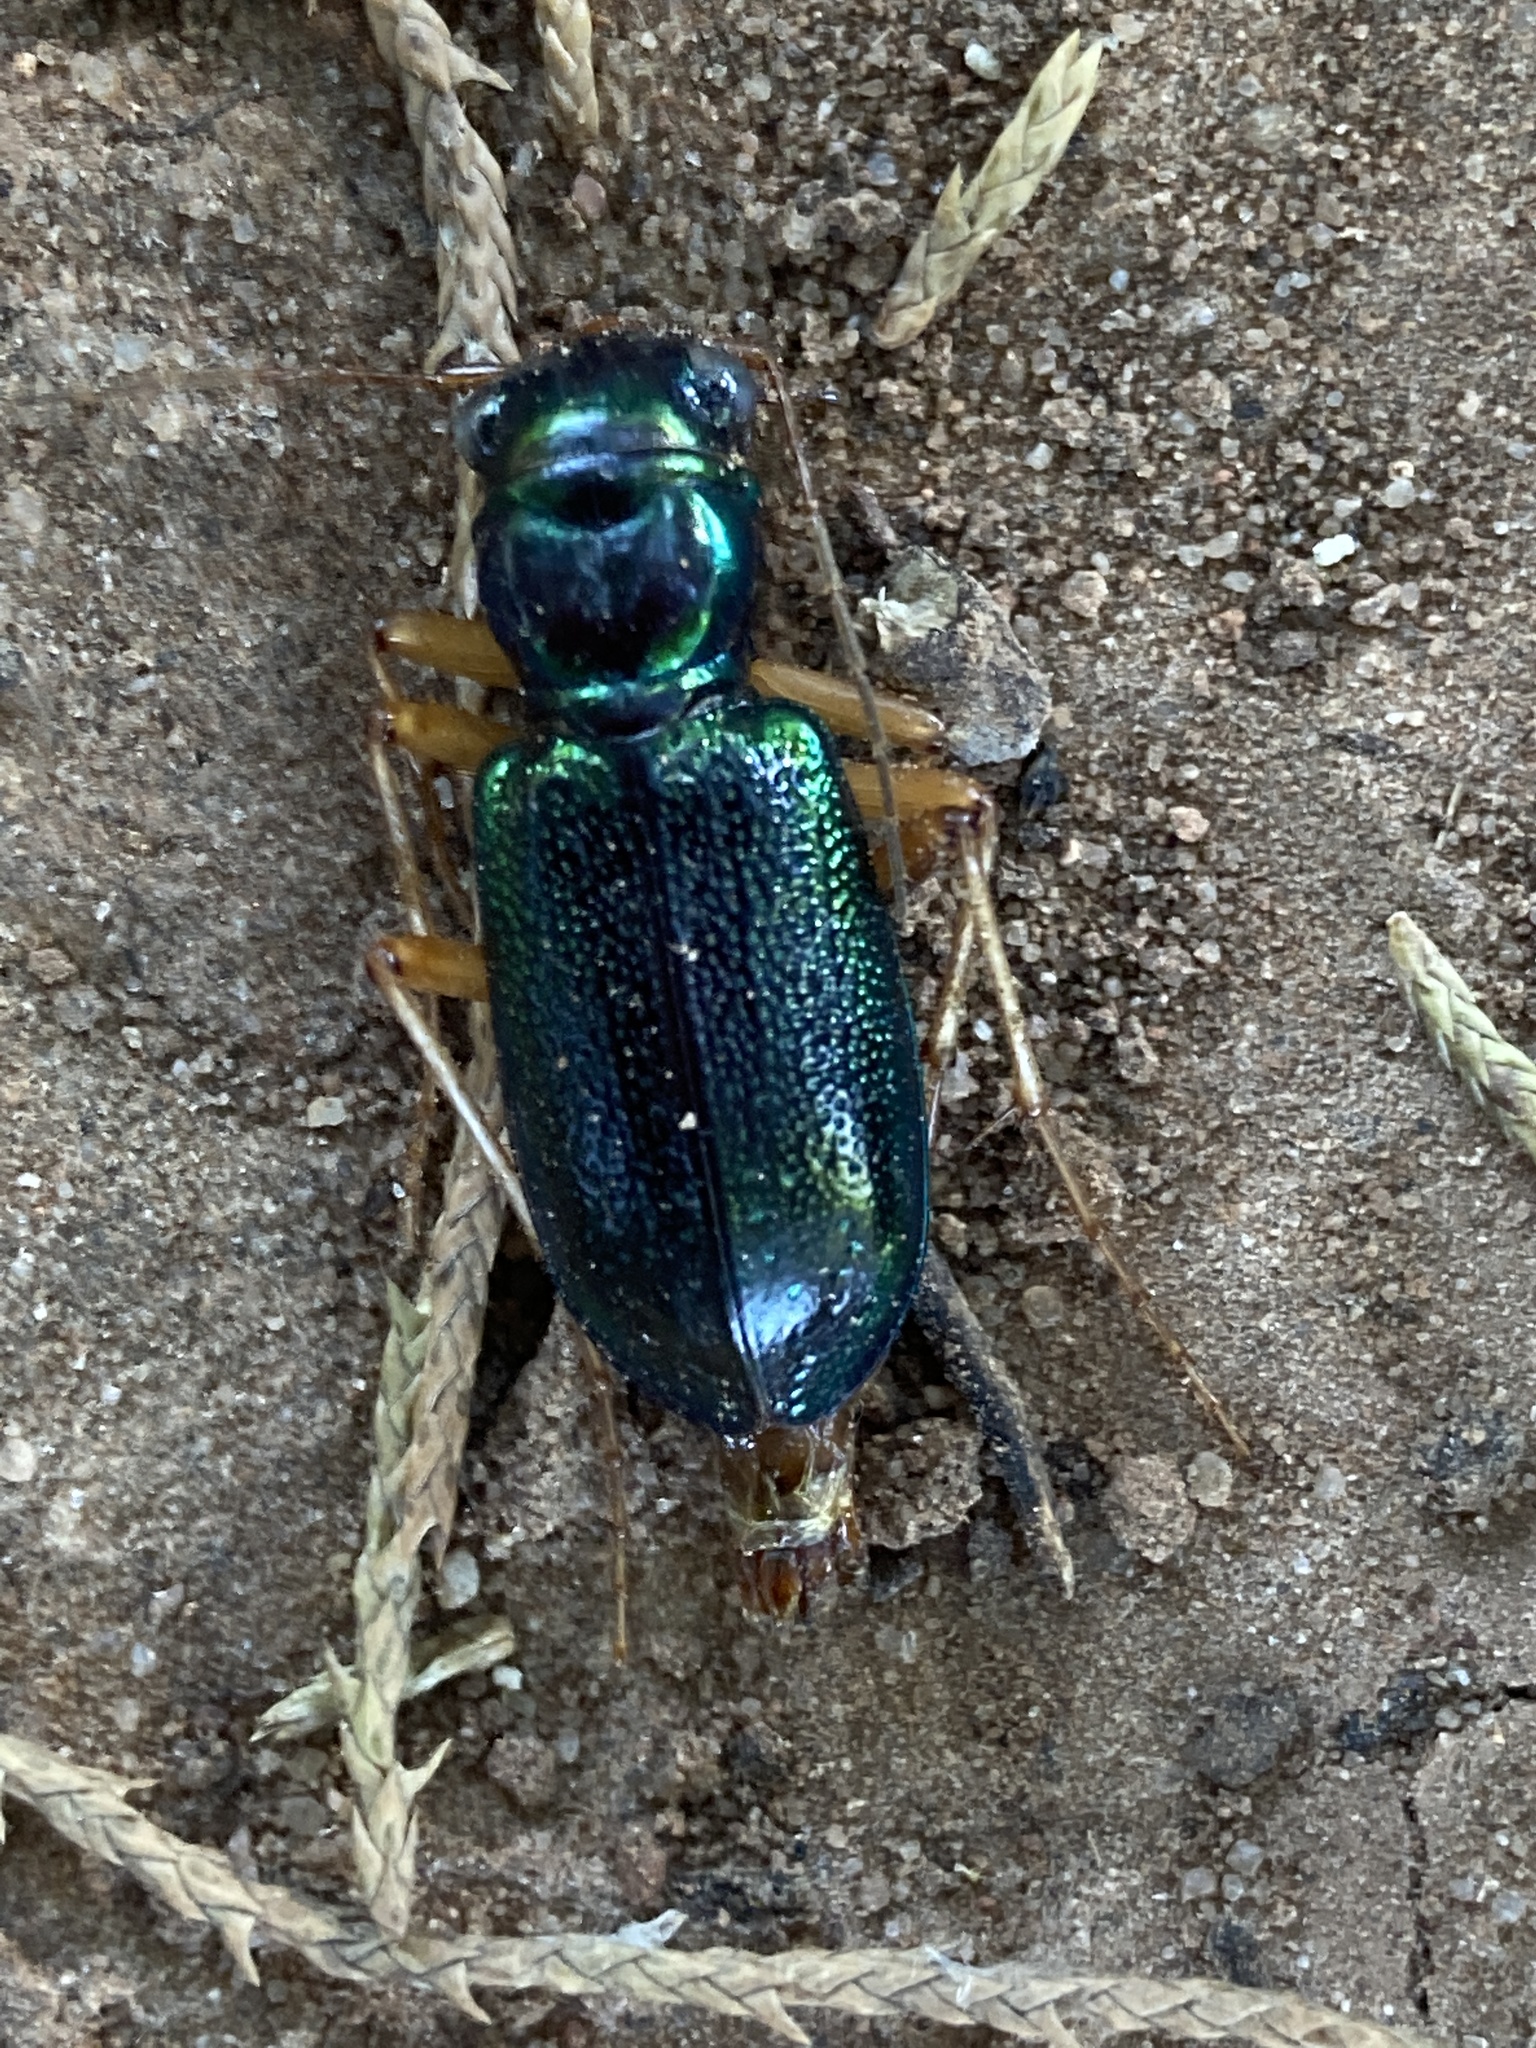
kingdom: Animalia
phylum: Arthropoda
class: Insecta
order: Coleoptera
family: Carabidae
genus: Tetracha
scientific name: Tetracha virginica
